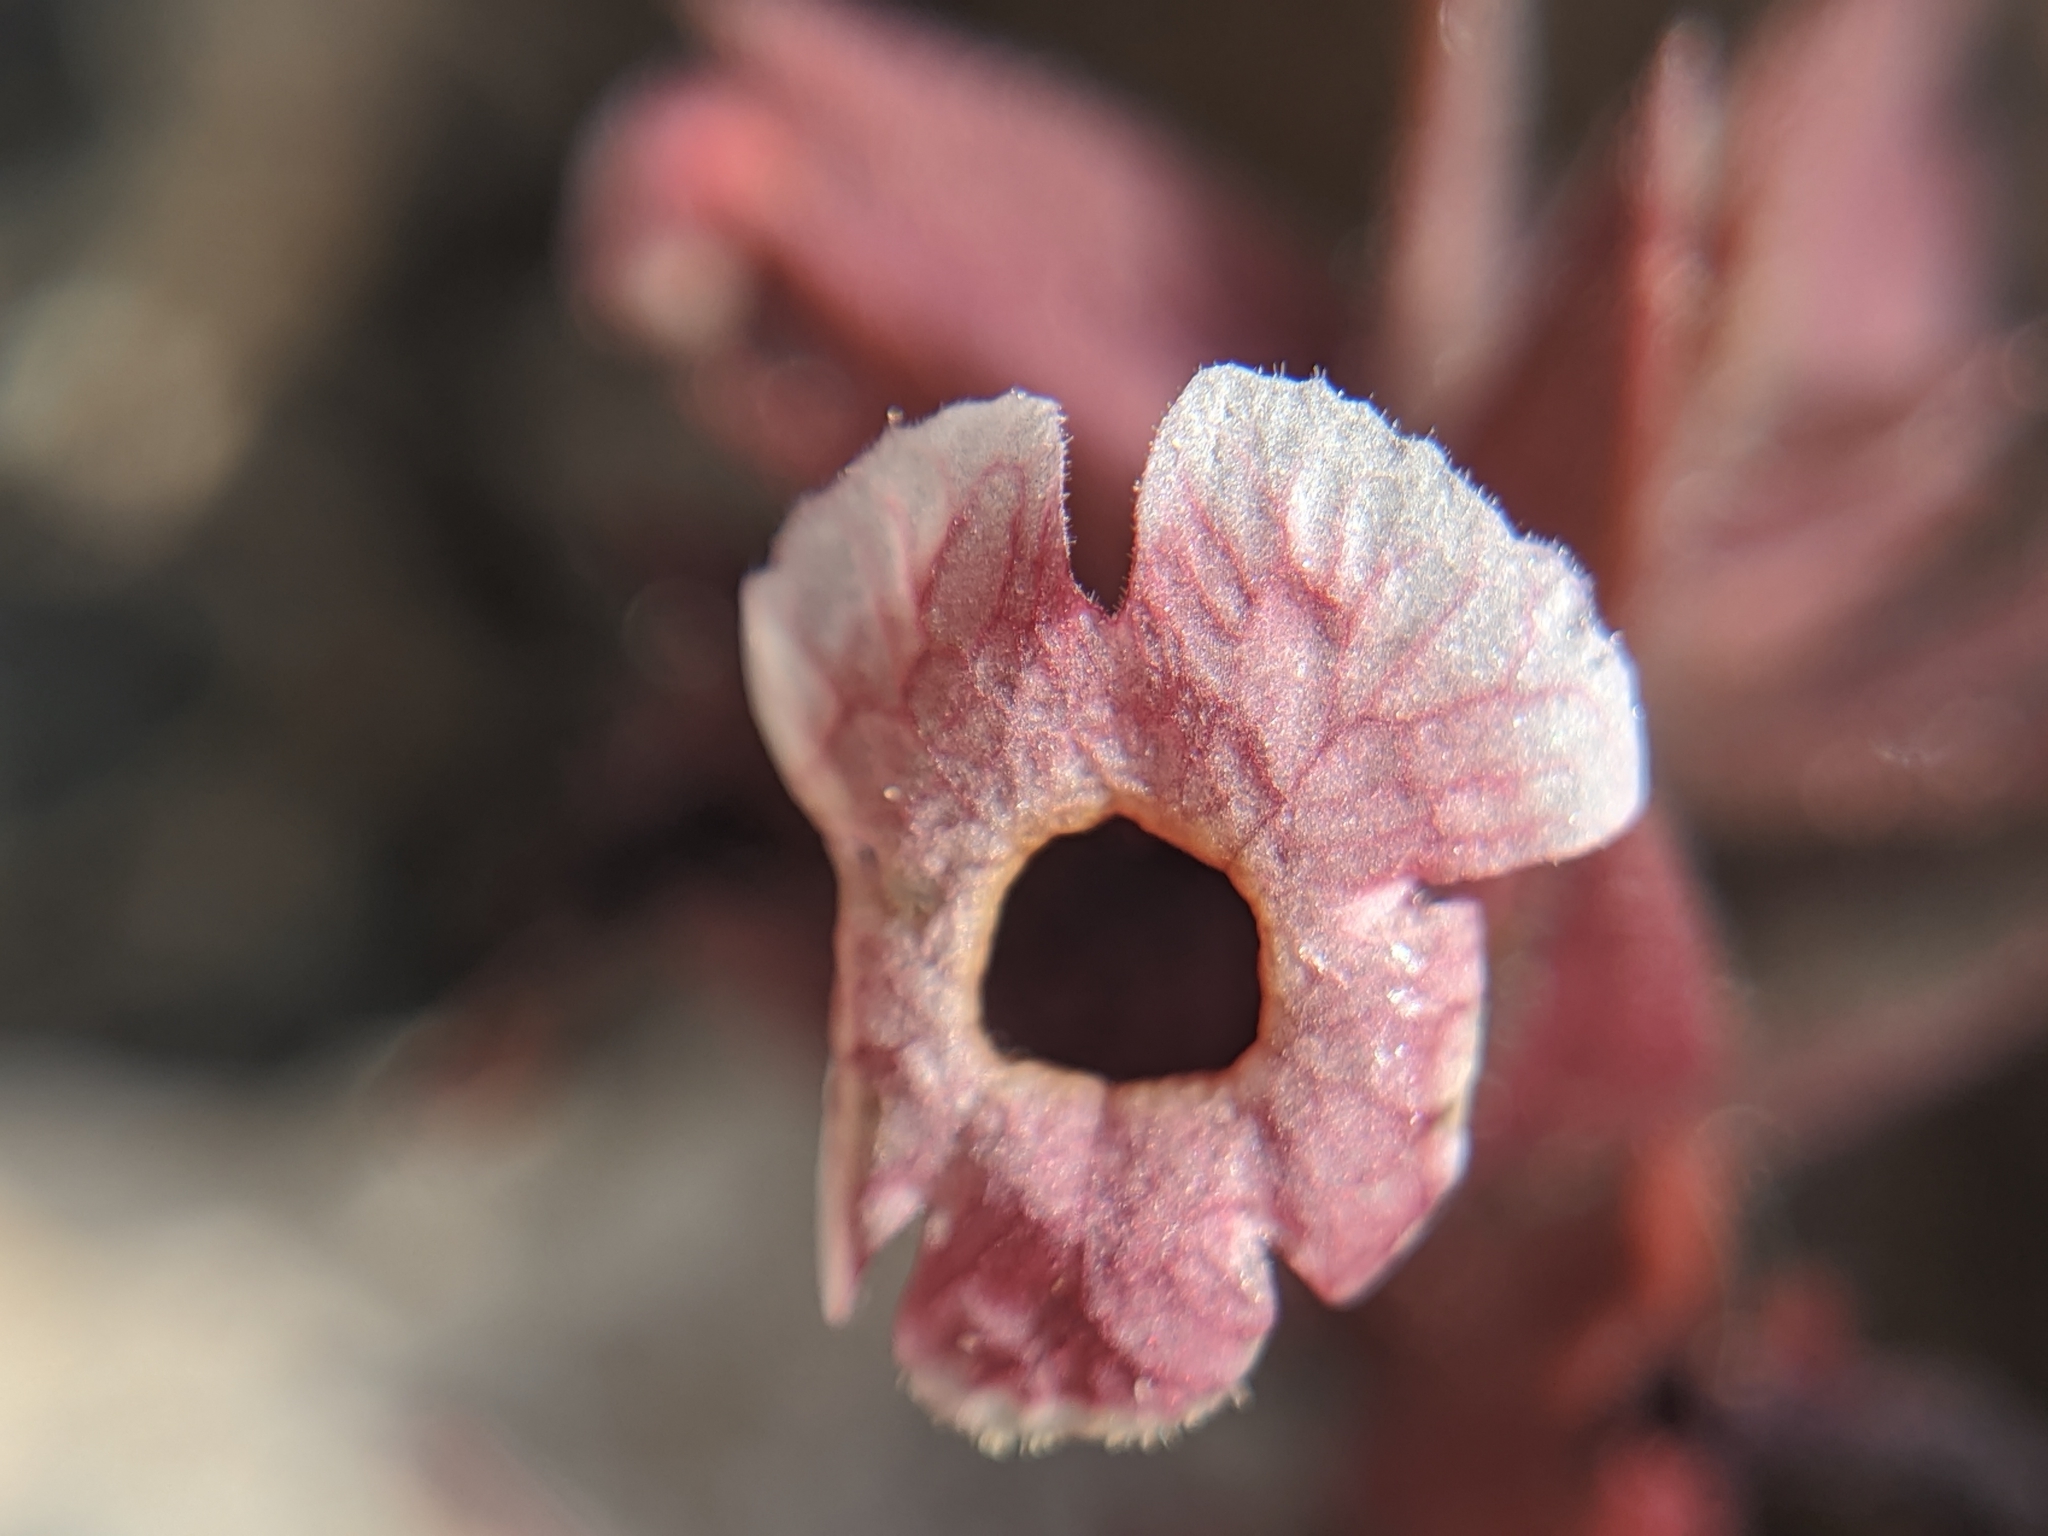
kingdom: Plantae
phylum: Tracheophyta
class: Magnoliopsida
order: Lamiales
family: Phrymaceae
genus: Diplacus
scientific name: Diplacus mohavensis
